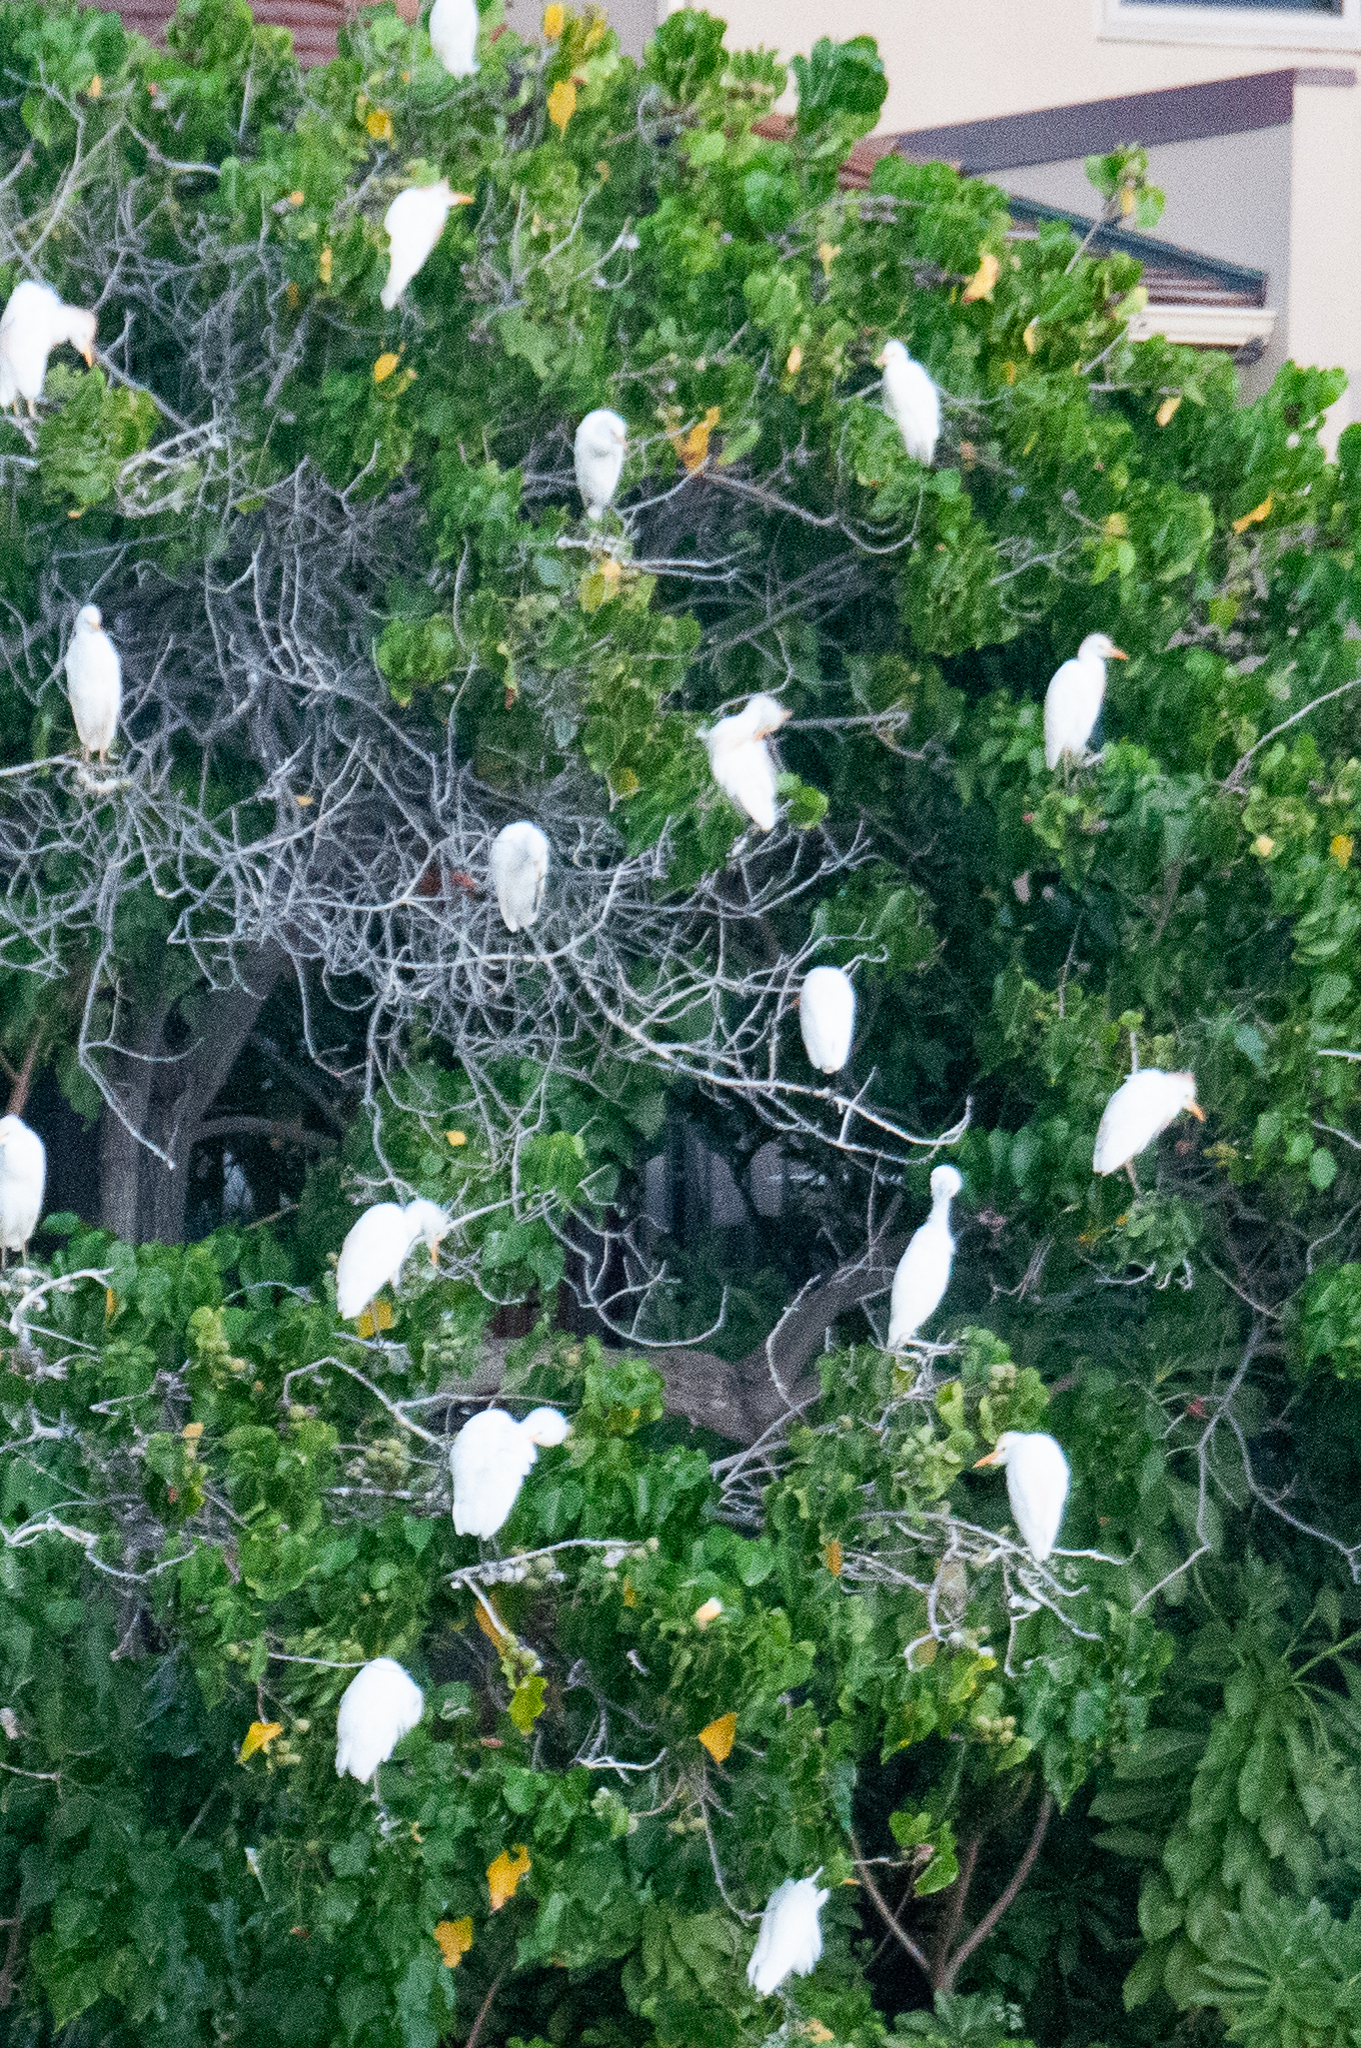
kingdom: Animalia
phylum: Chordata
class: Aves
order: Pelecaniformes
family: Ardeidae
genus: Bubulcus
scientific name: Bubulcus ibis
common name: Cattle egret
